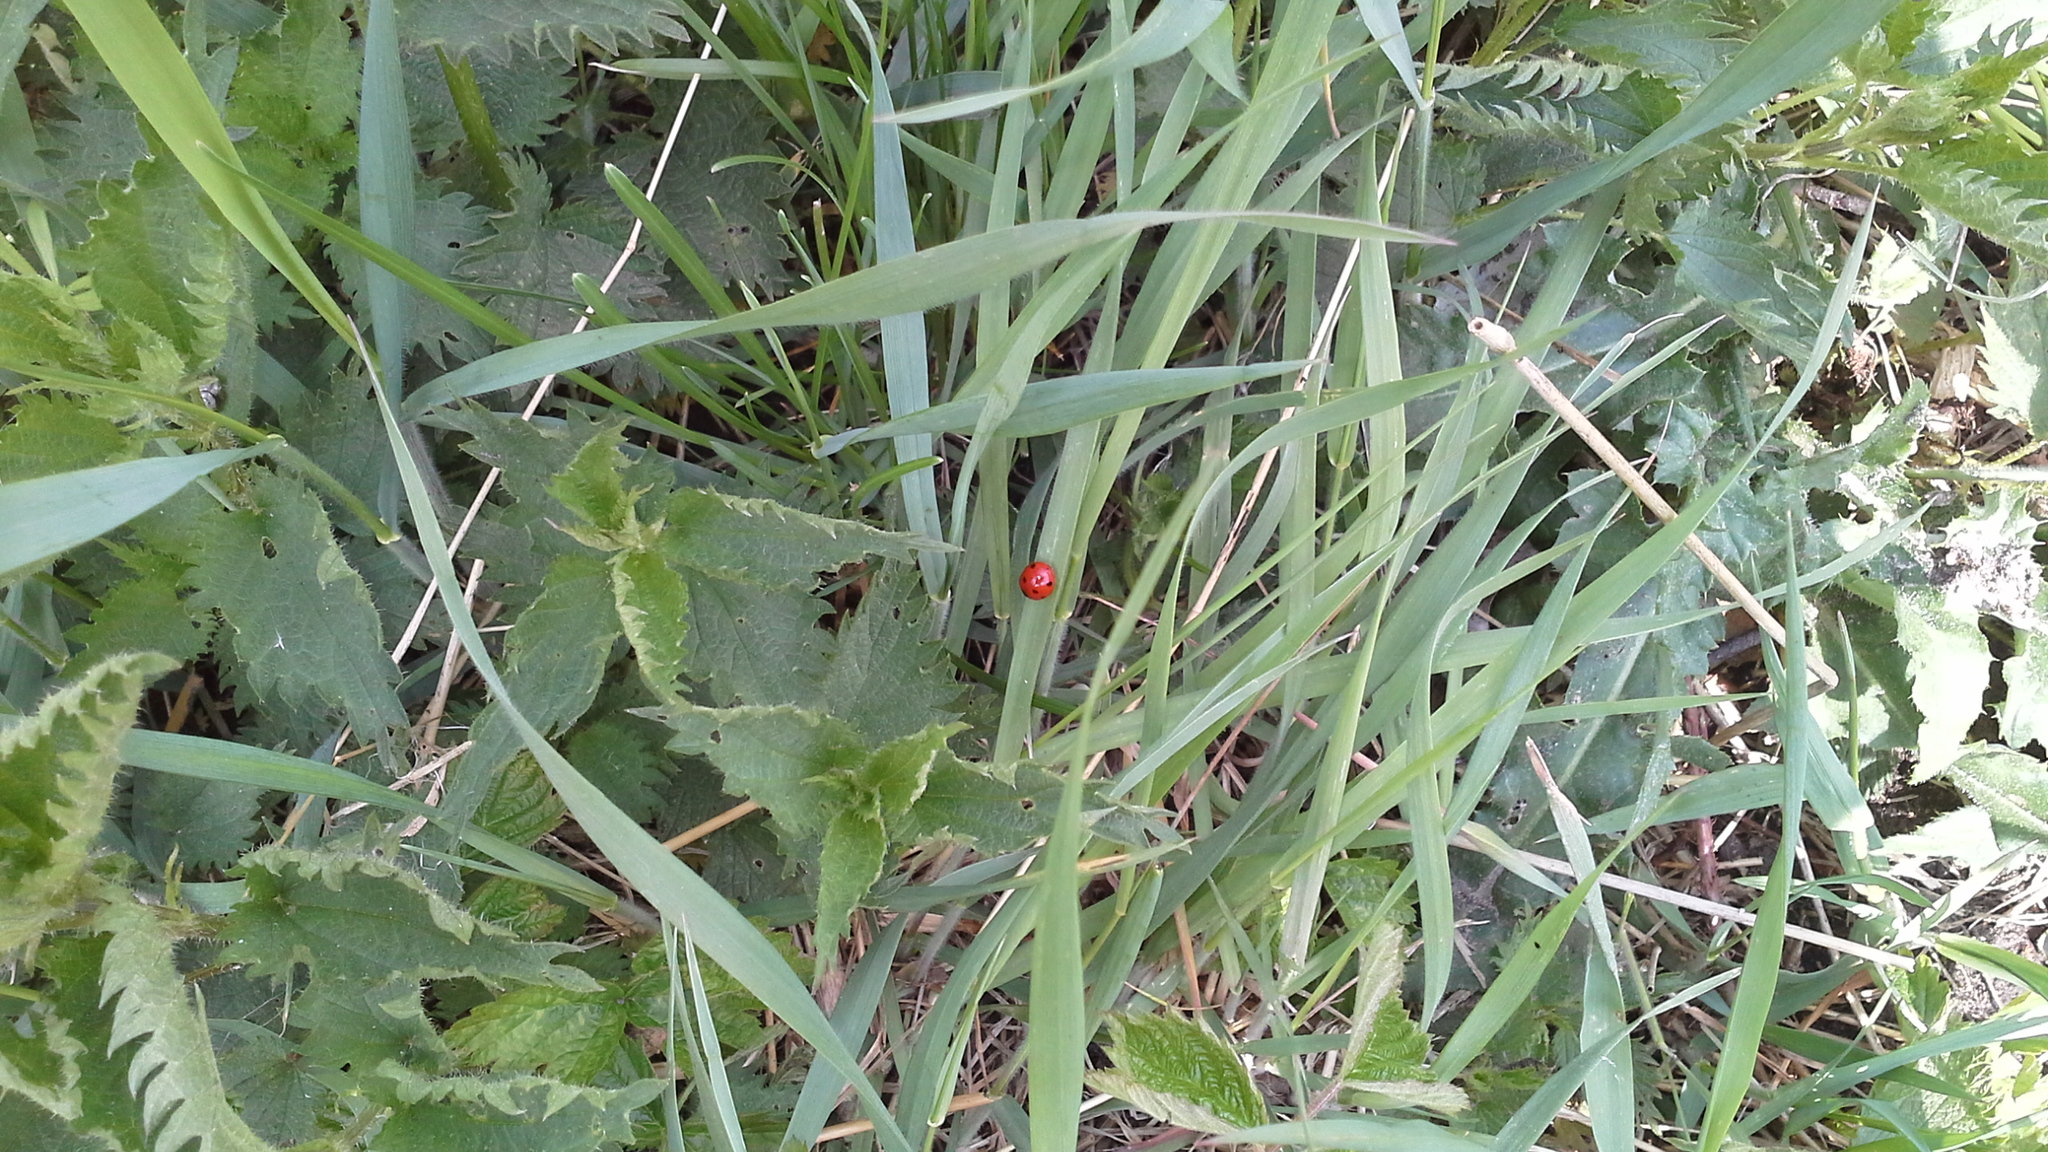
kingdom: Animalia
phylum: Arthropoda
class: Insecta
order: Coleoptera
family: Coccinellidae
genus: Coccinella
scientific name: Coccinella septempunctata
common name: Sevenspotted lady beetle
